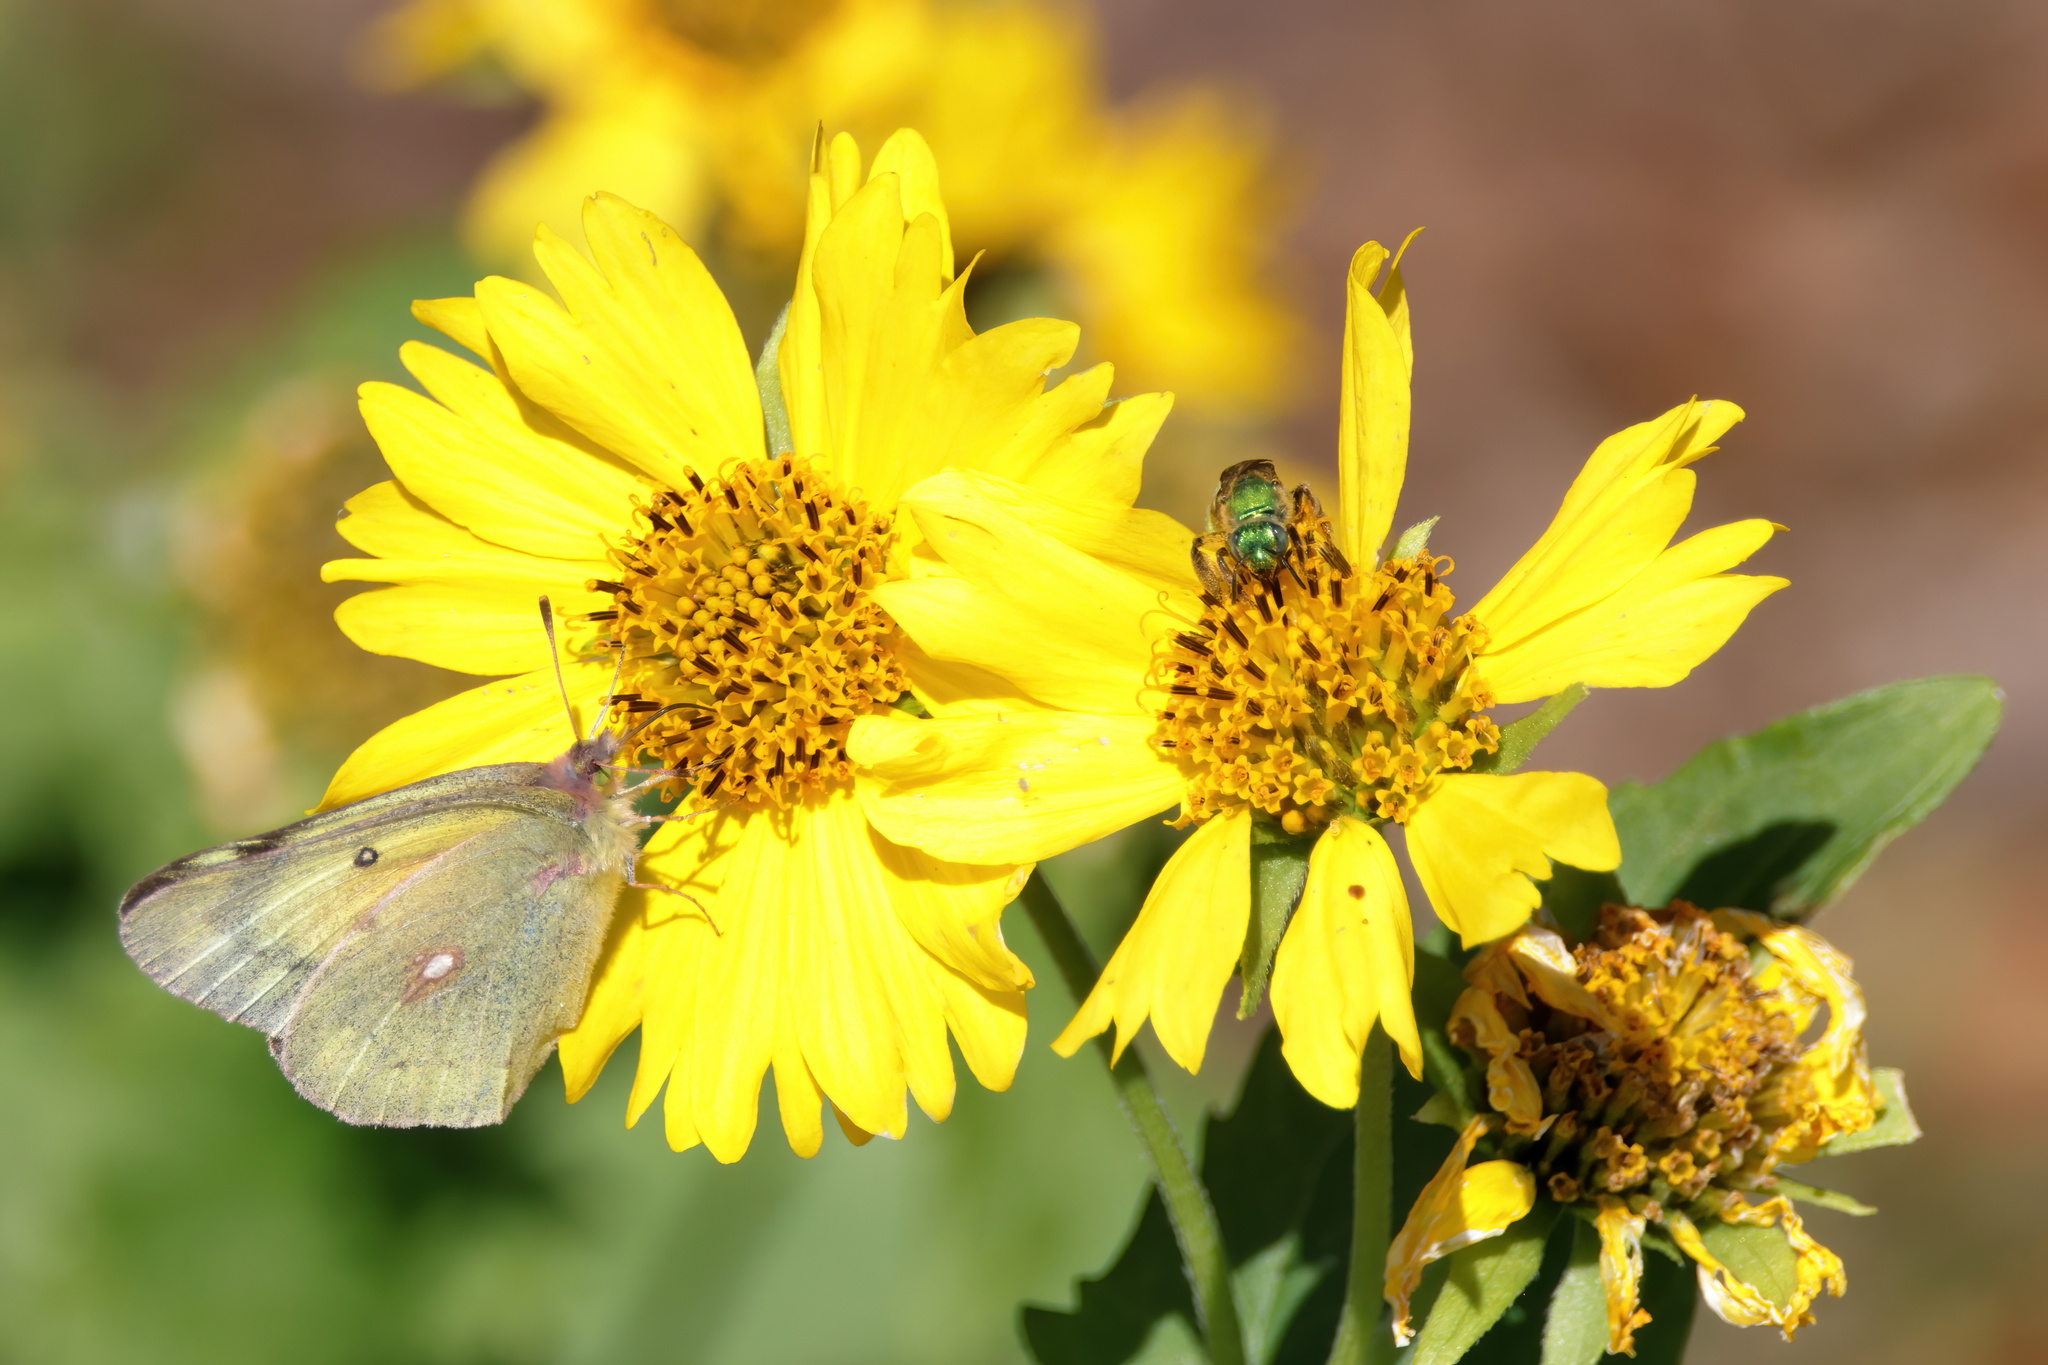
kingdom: Animalia
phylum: Arthropoda
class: Insecta
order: Lepidoptera
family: Pieridae
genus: Colias
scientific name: Colias eurytheme
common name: Alfalfa butterfly
